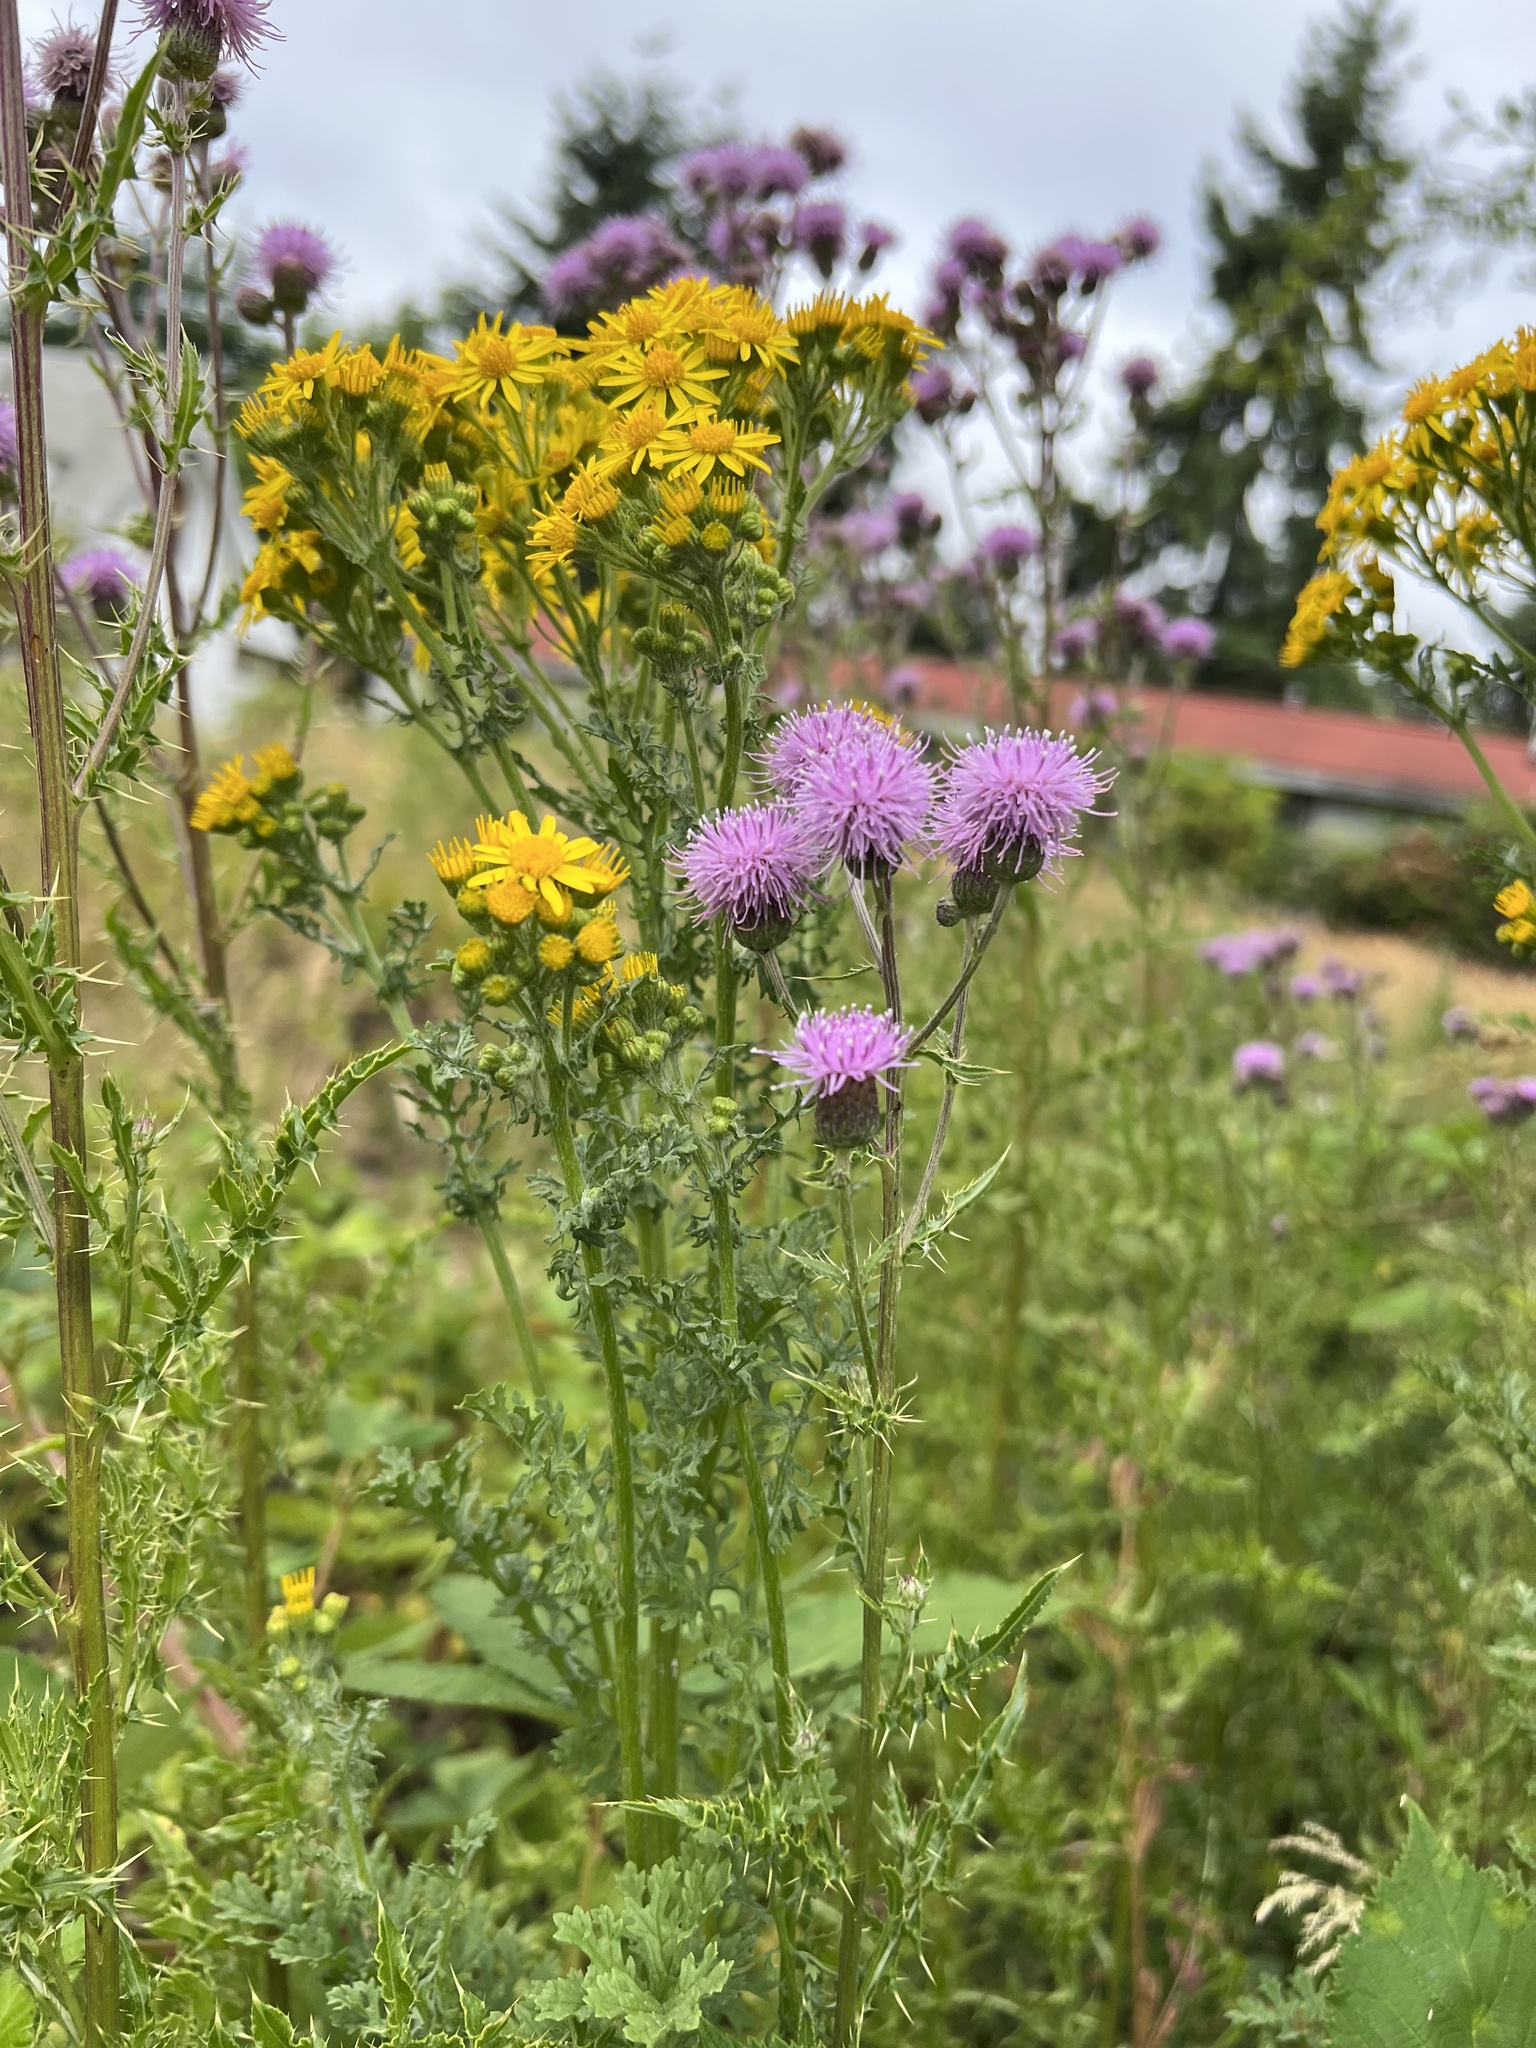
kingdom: Plantae
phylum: Tracheophyta
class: Magnoliopsida
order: Asterales
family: Asteraceae
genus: Jacobaea
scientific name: Jacobaea vulgaris
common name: Stinking willie
